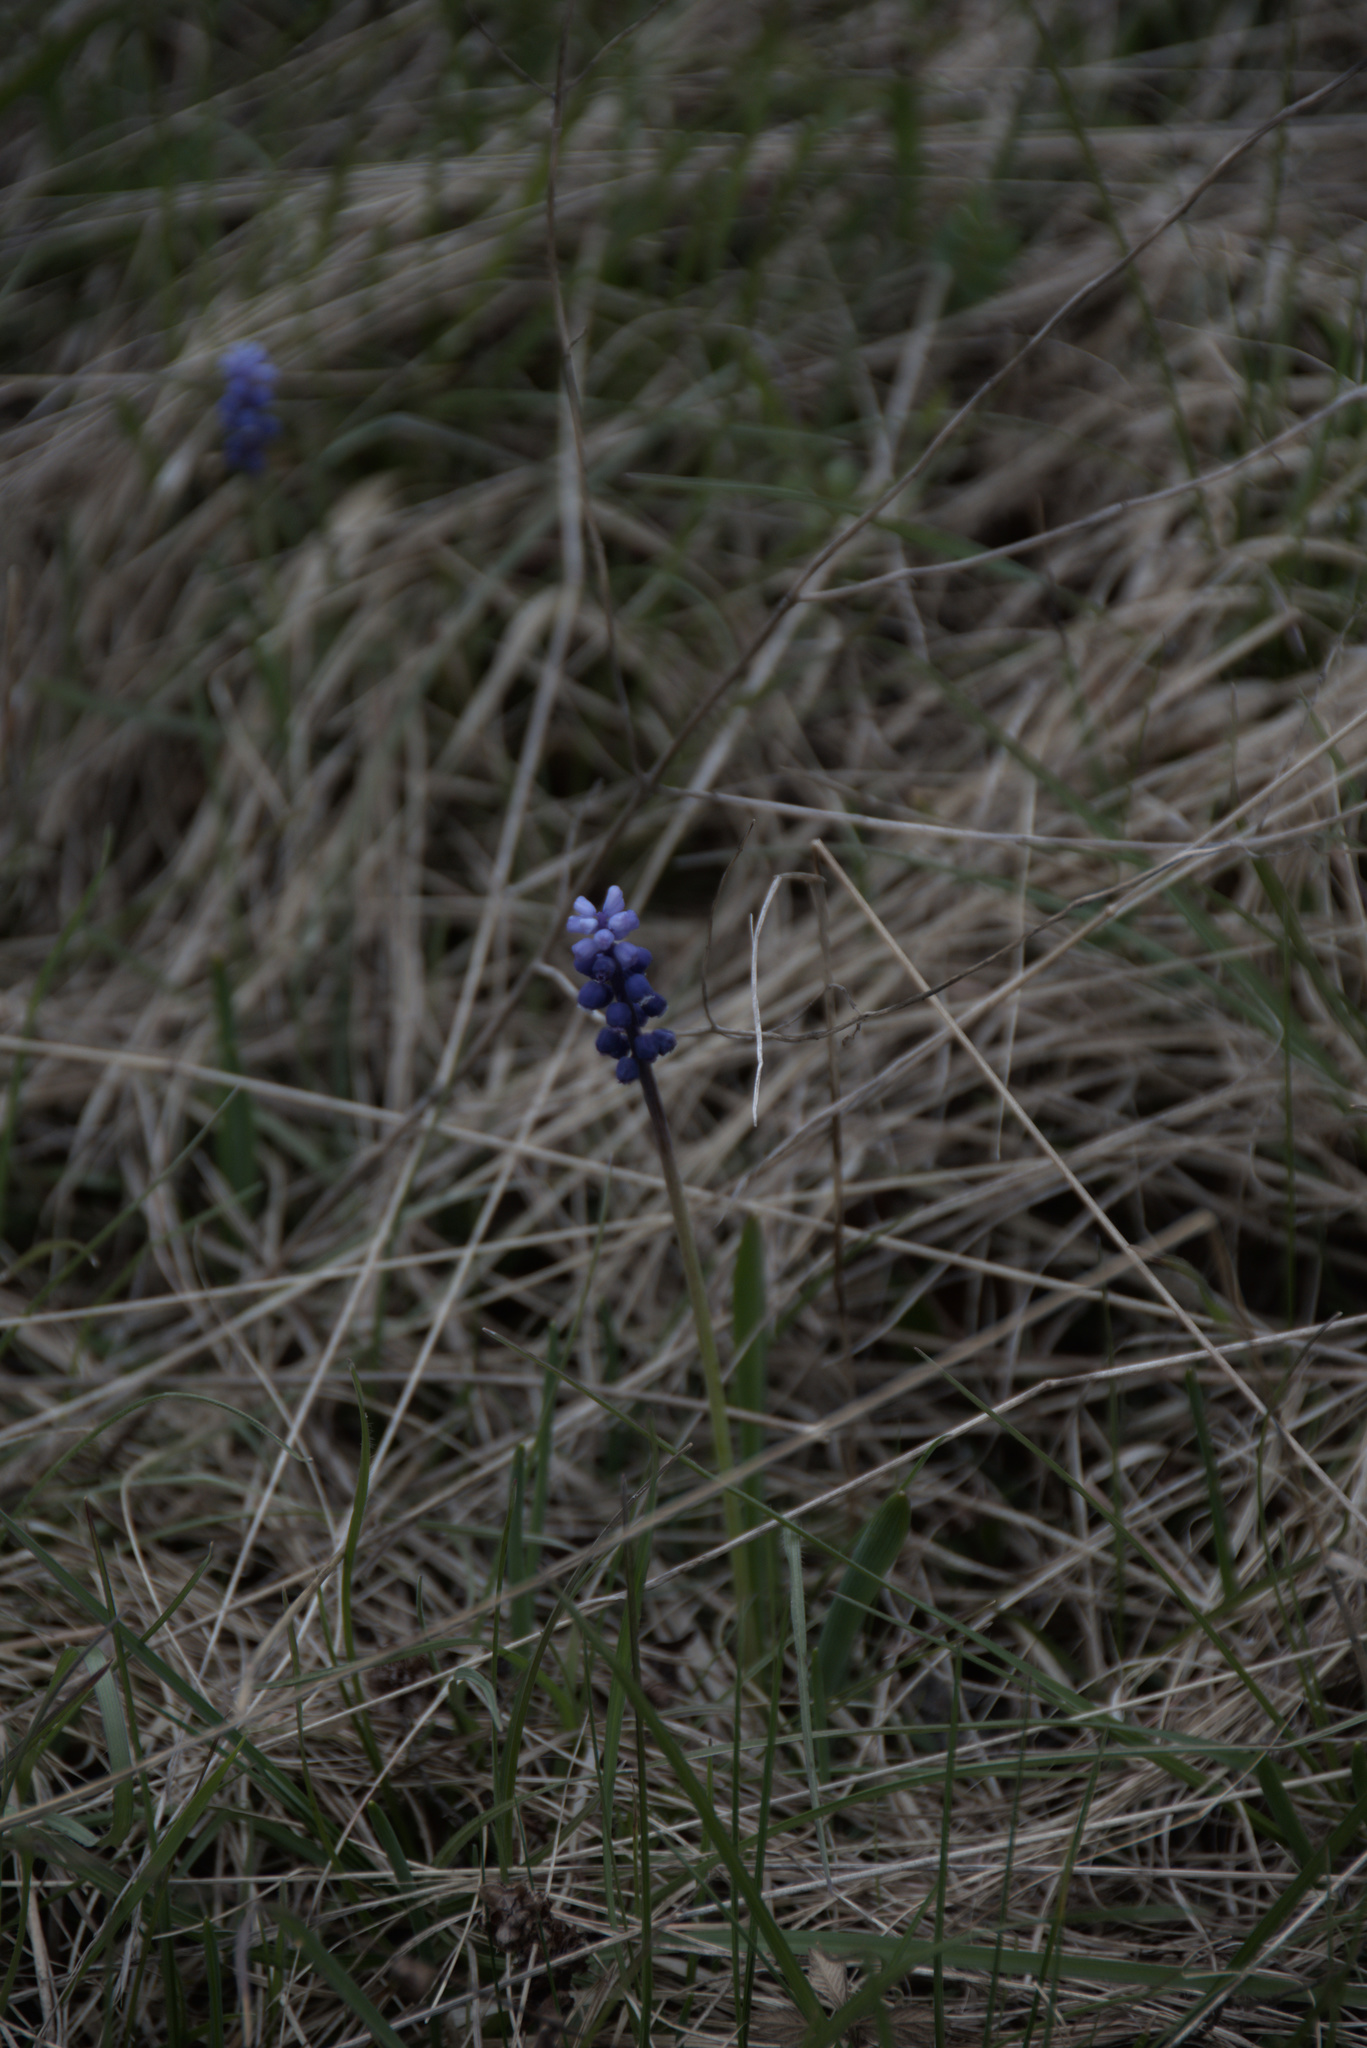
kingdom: Plantae
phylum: Tracheophyta
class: Liliopsida
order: Asparagales
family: Asparagaceae
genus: Muscari
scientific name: Muscari botryoides
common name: Compact grape-hyacinth
